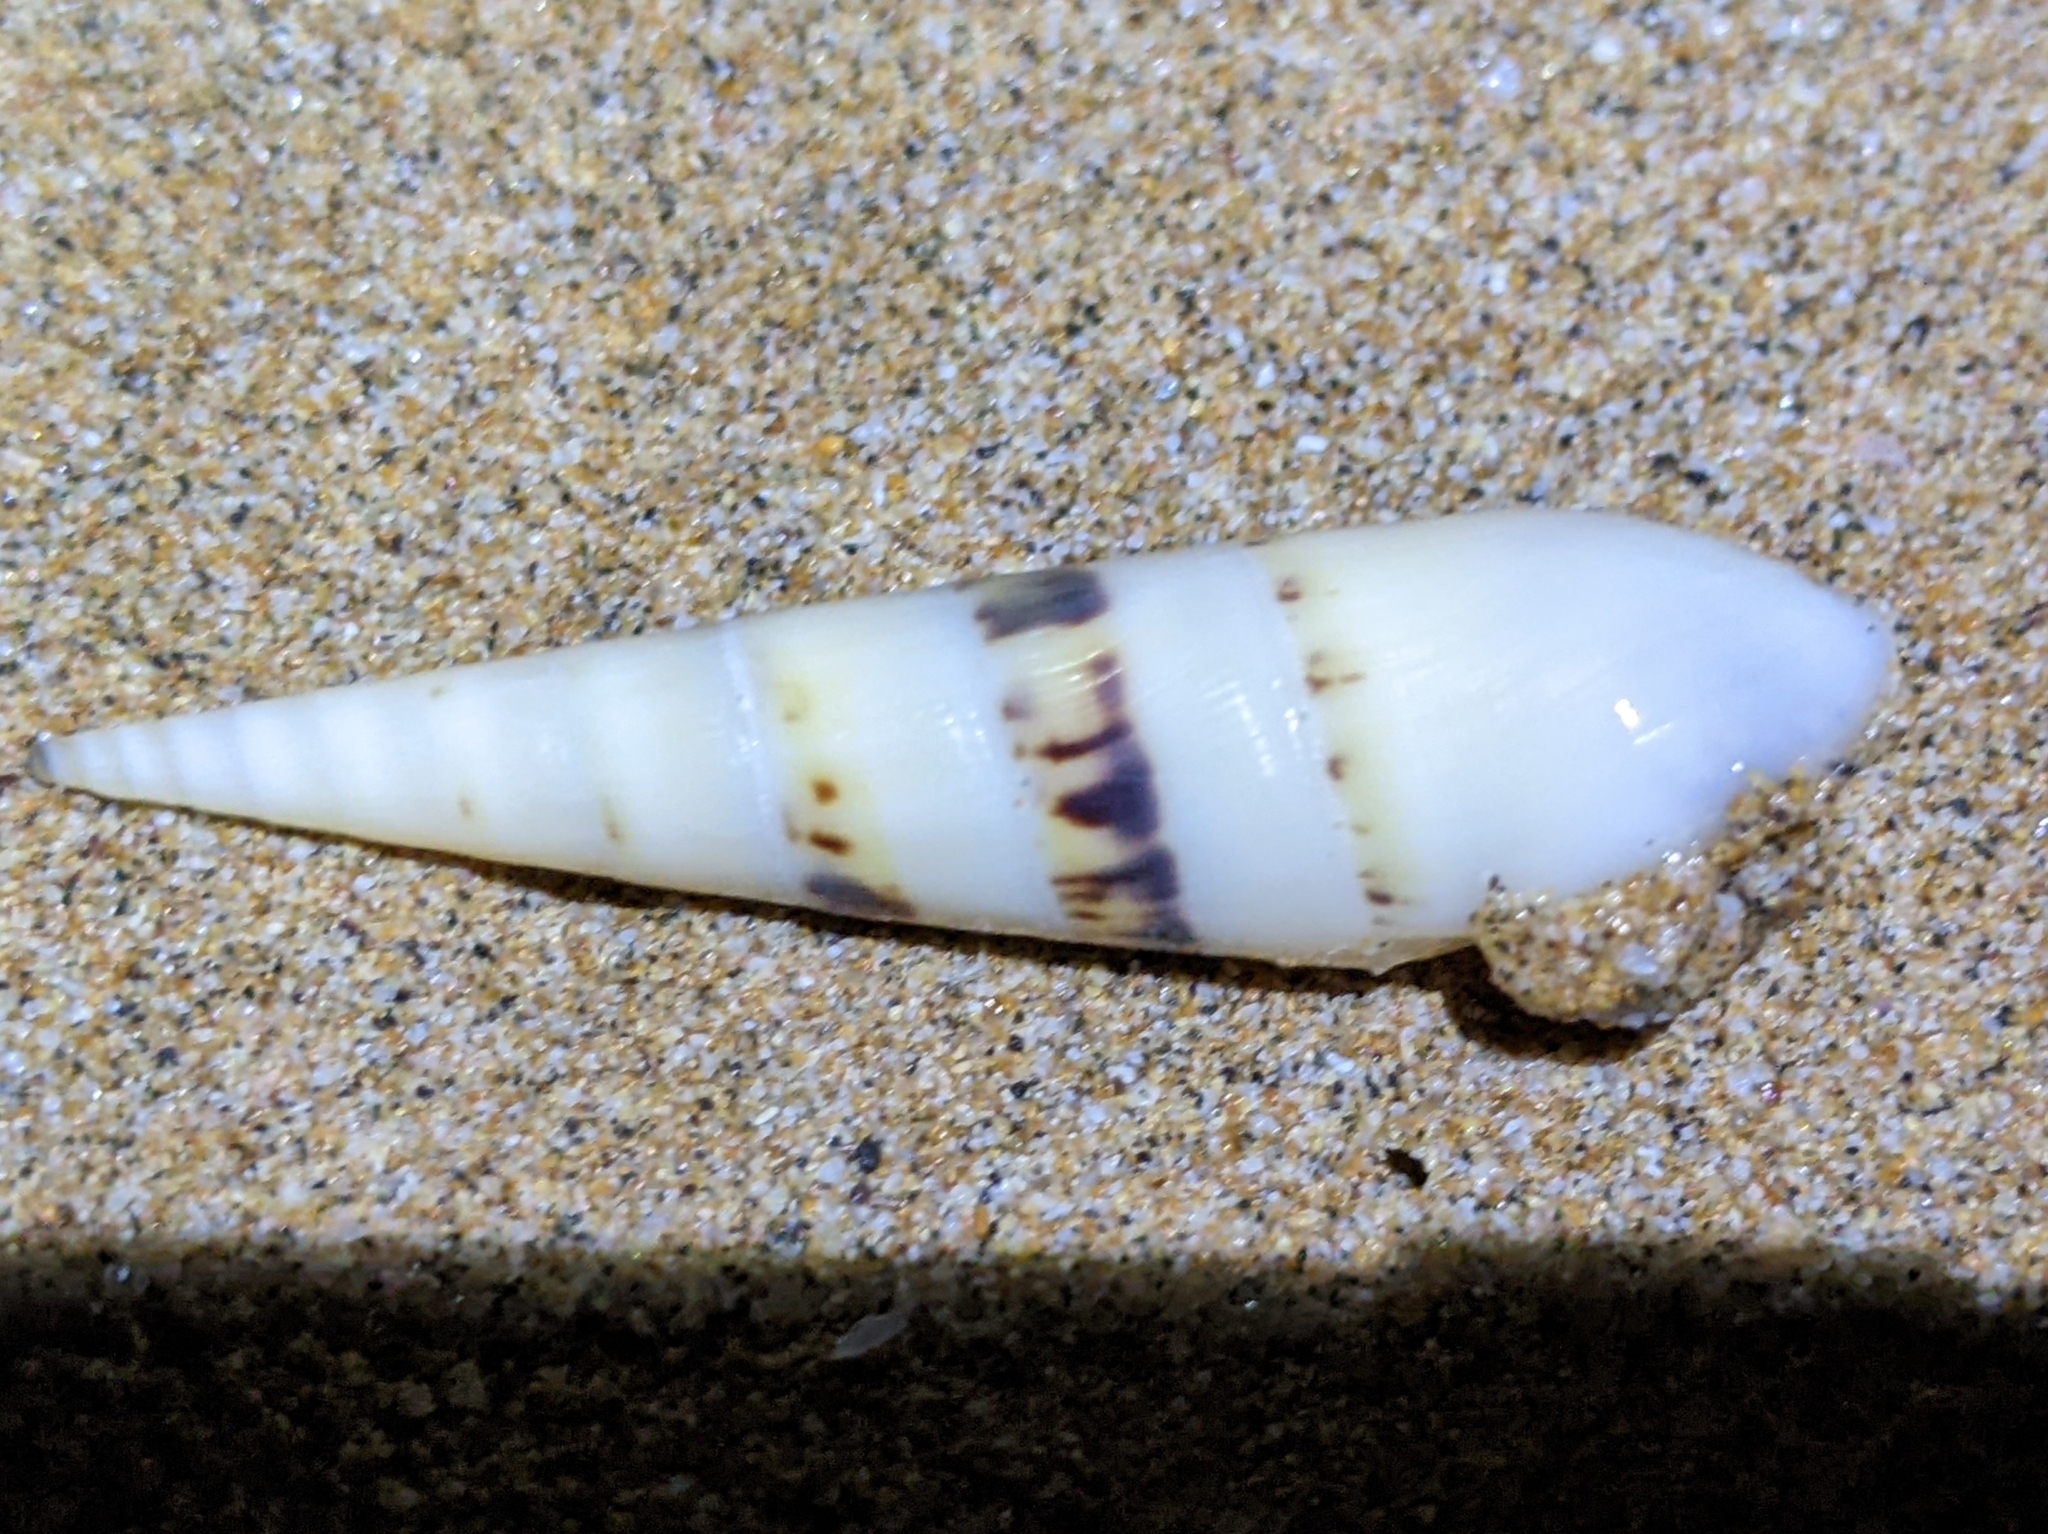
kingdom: Animalia
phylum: Mollusca
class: Gastropoda
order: Neogastropoda
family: Terebridae
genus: Hastula
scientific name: Hastula hectica
